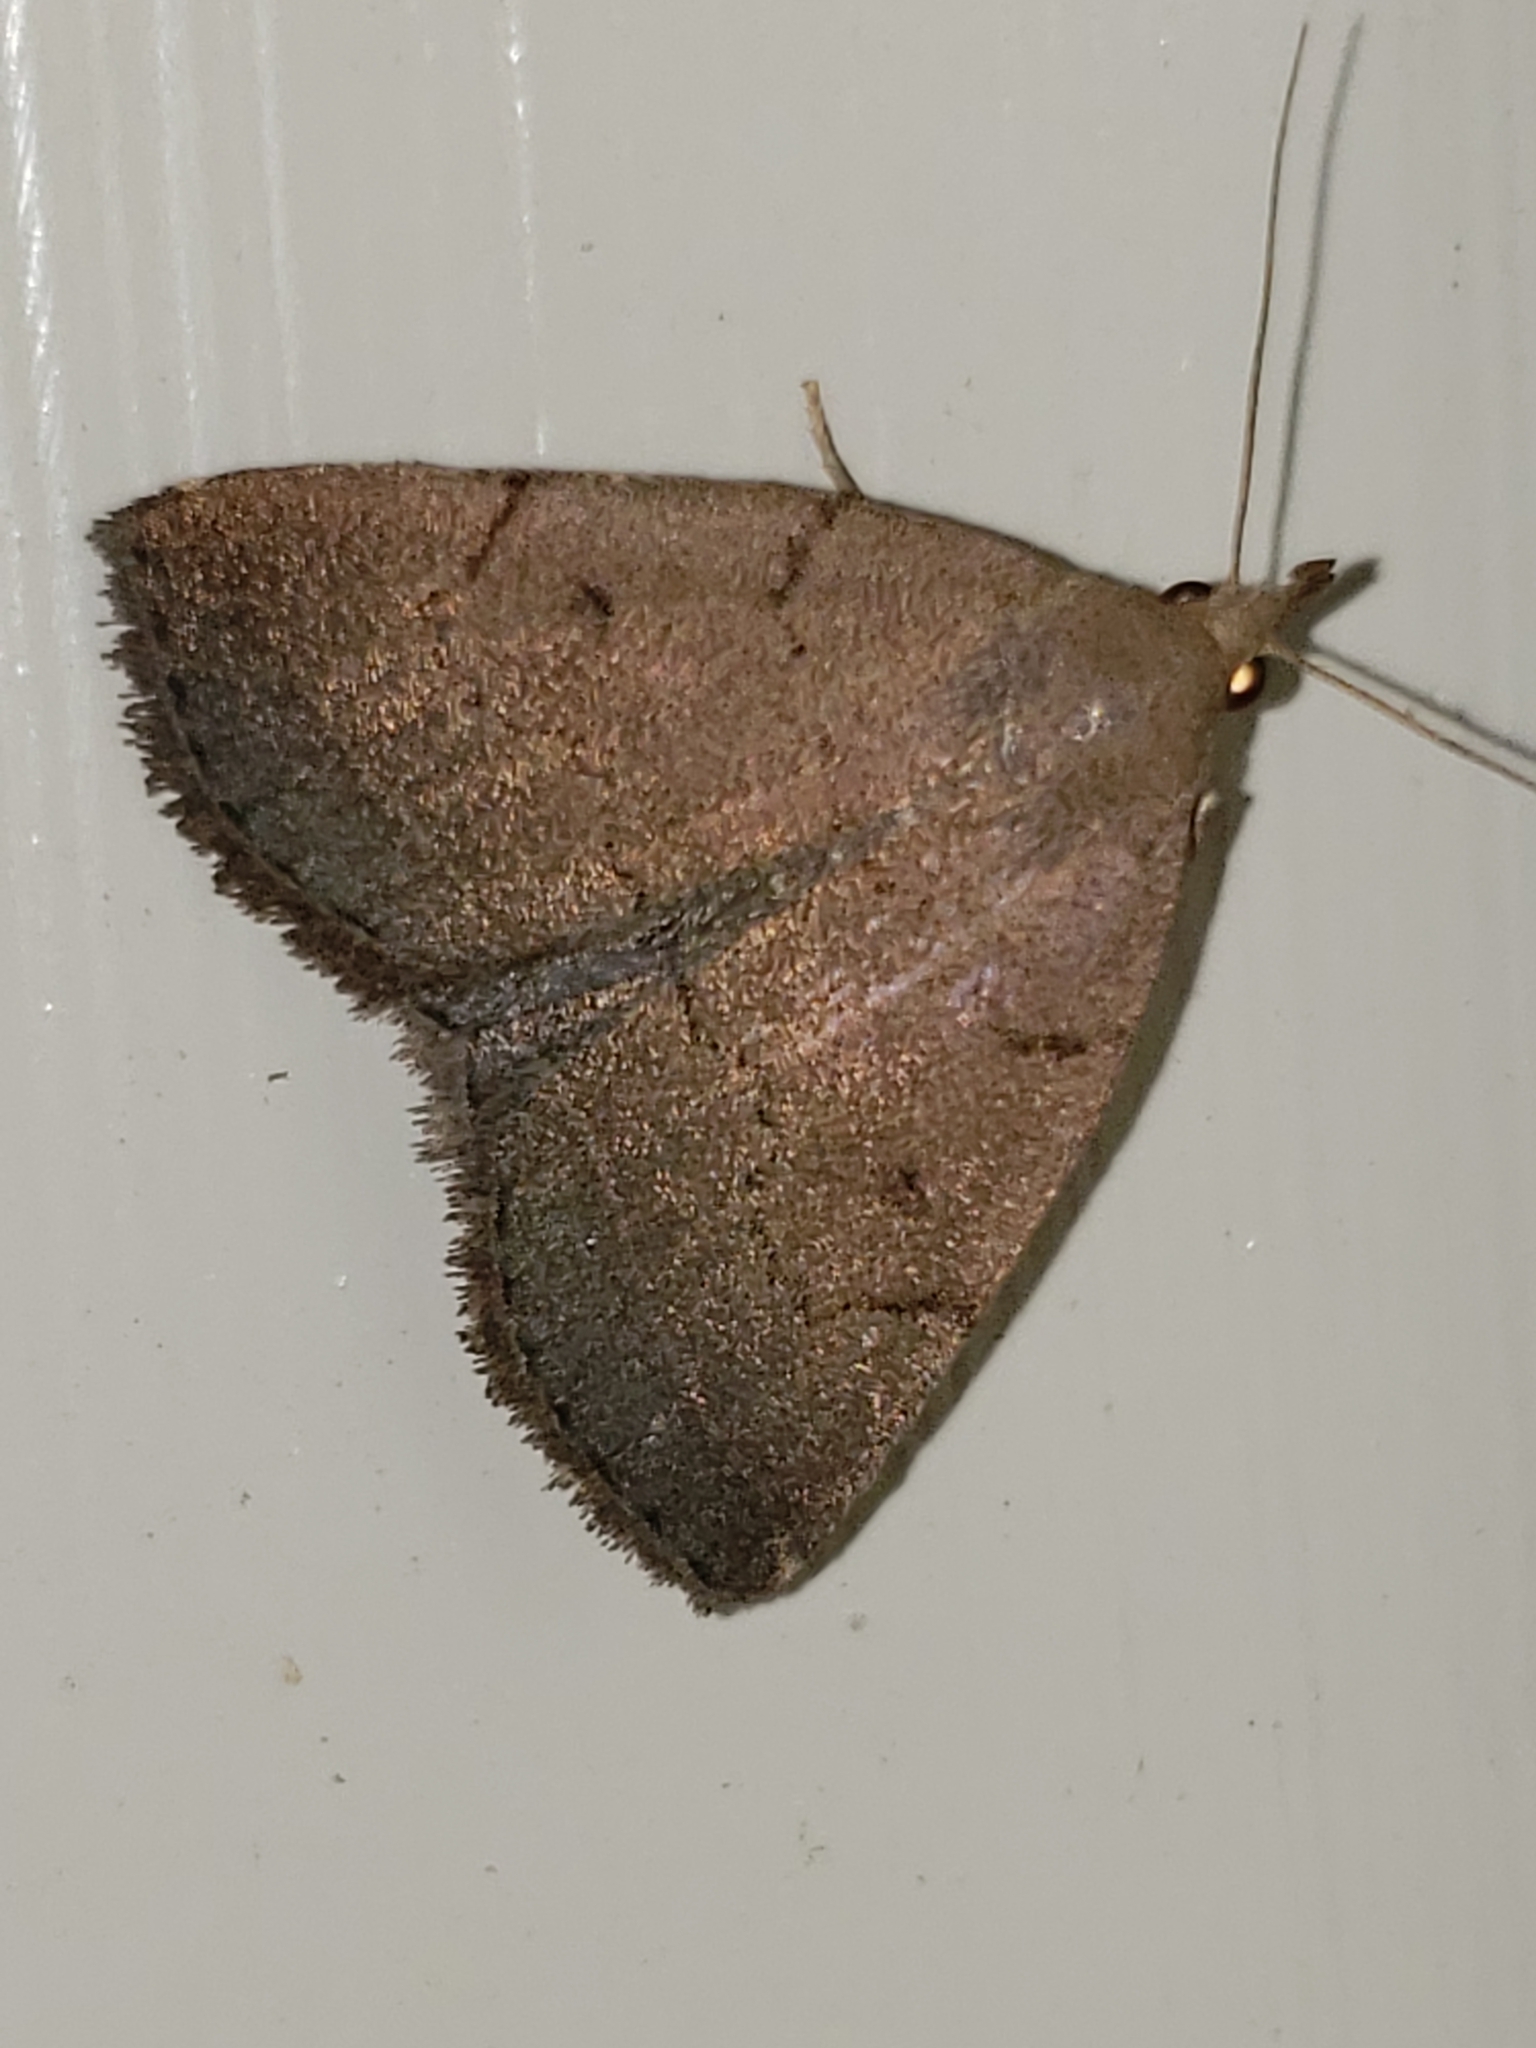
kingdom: Animalia
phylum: Arthropoda
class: Insecta
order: Lepidoptera
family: Erebidae
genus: Zanclognatha
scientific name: Zanclognatha martha
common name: Pine barrens zanclognatha
